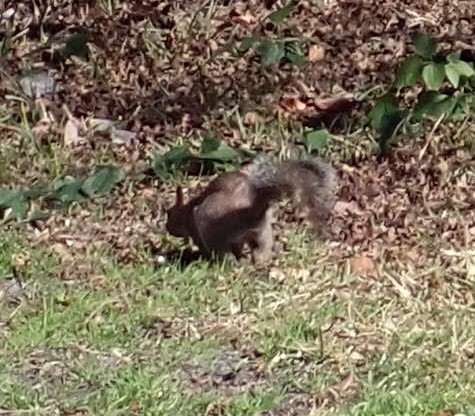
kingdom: Animalia
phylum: Chordata
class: Mammalia
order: Rodentia
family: Sciuridae
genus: Sciurus
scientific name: Sciurus carolinensis
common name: Eastern gray squirrel
